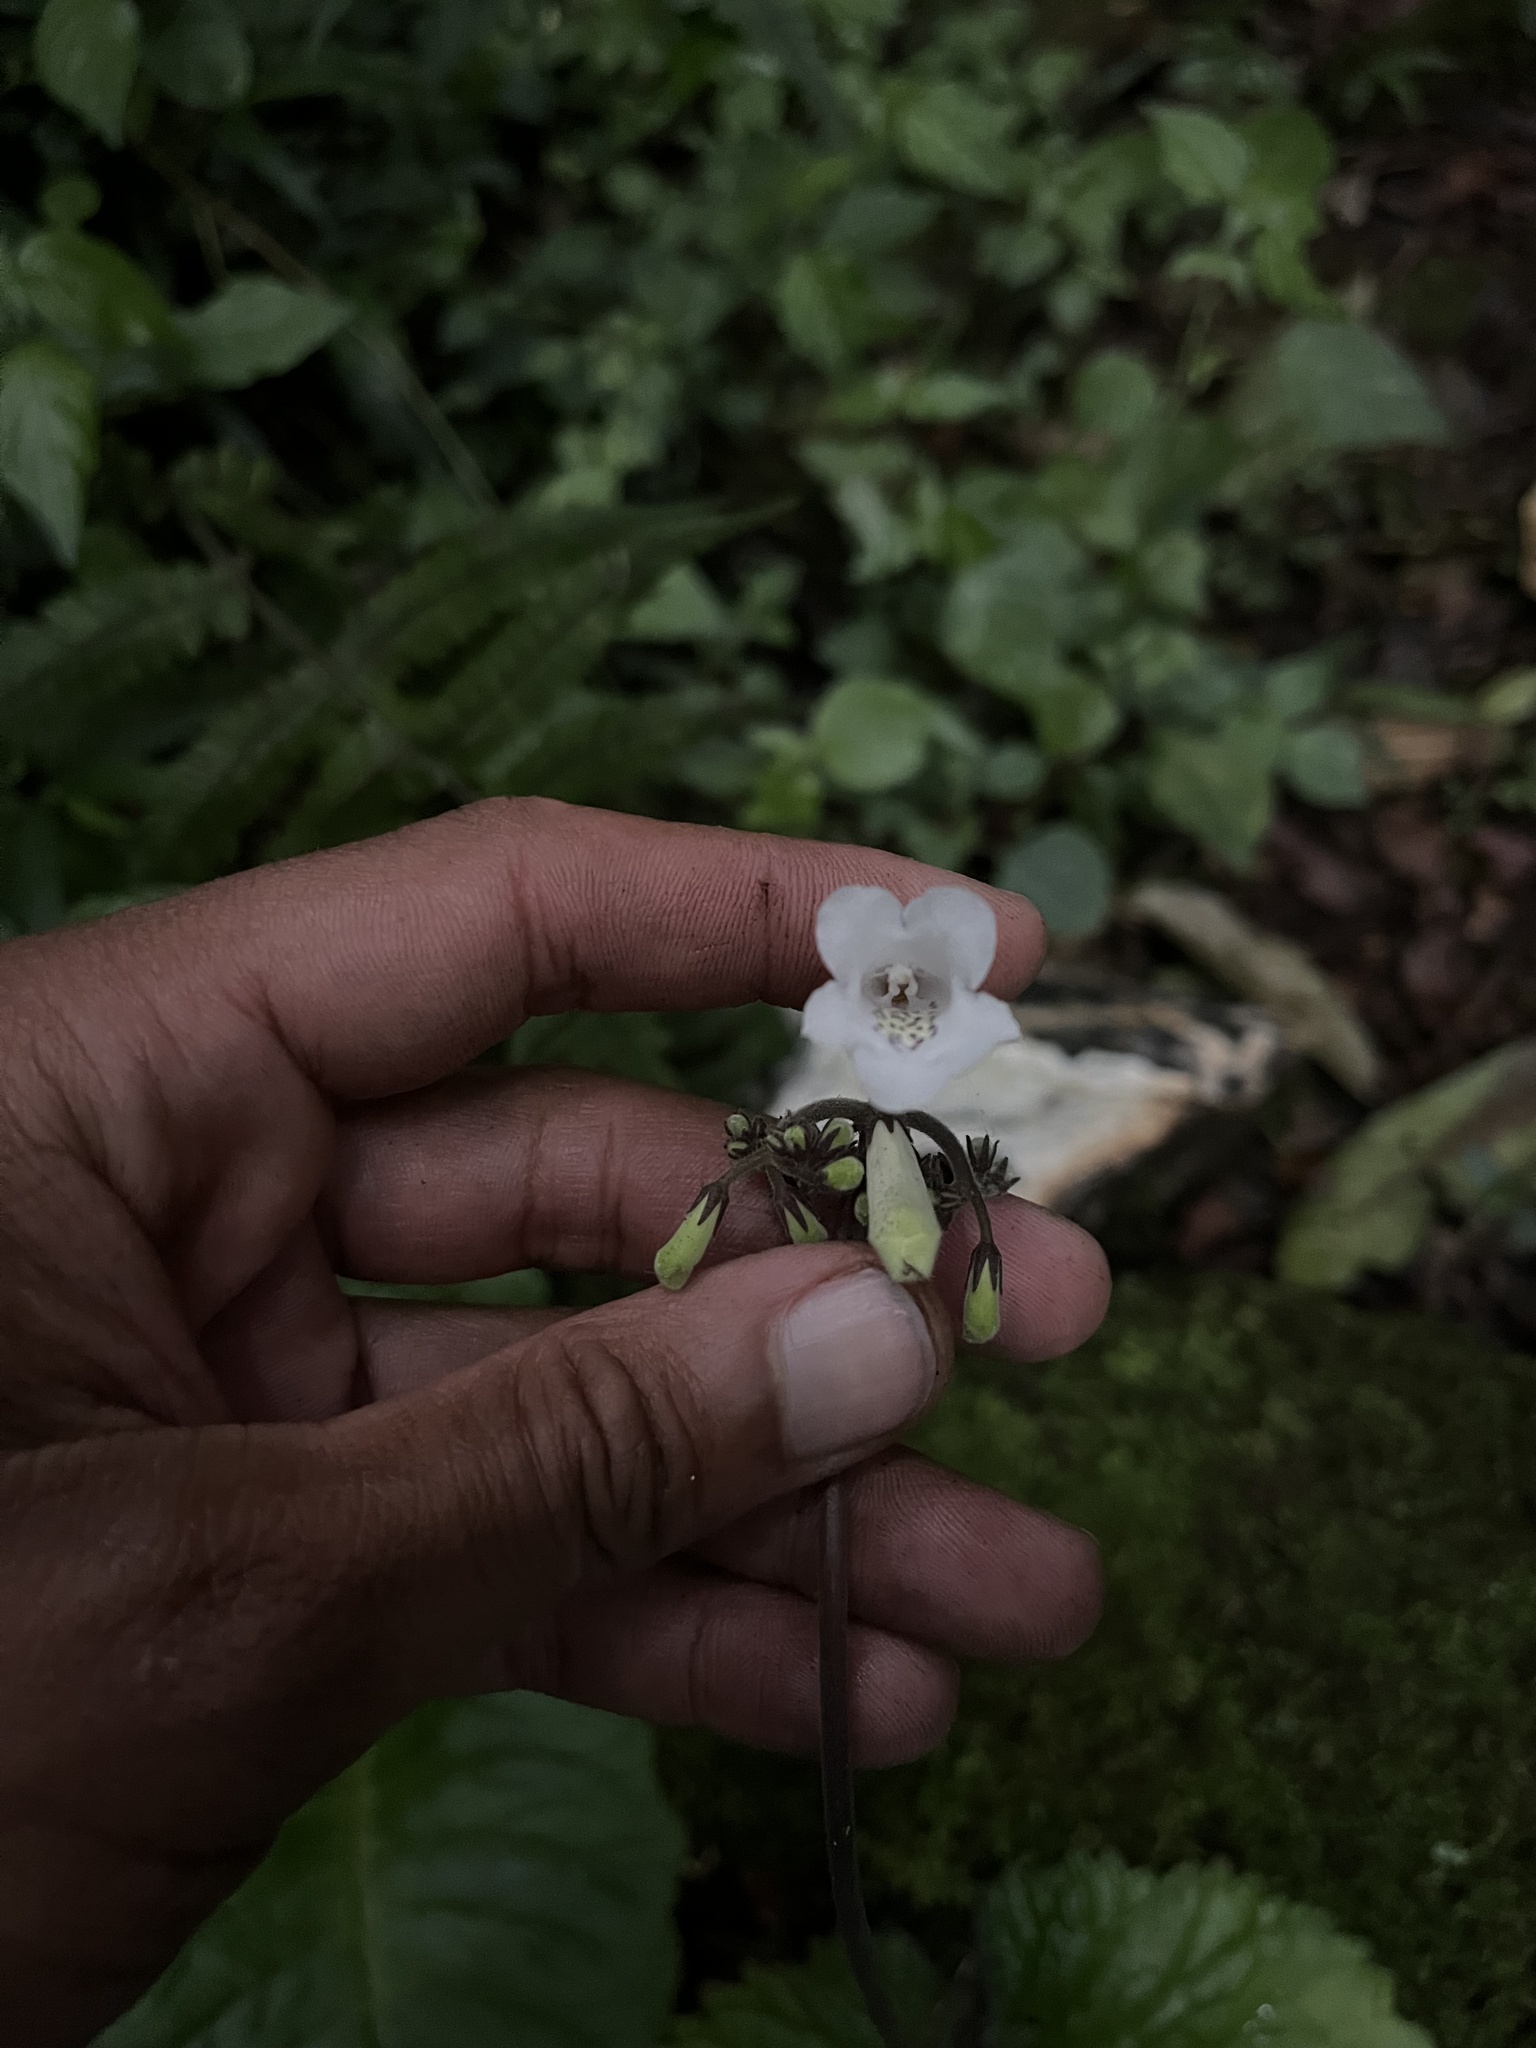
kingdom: Plantae
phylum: Tracheophyta
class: Magnoliopsida
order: Lamiales
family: Gesneriaceae
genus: Streptocarpus
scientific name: Streptocarpus wilmsii
